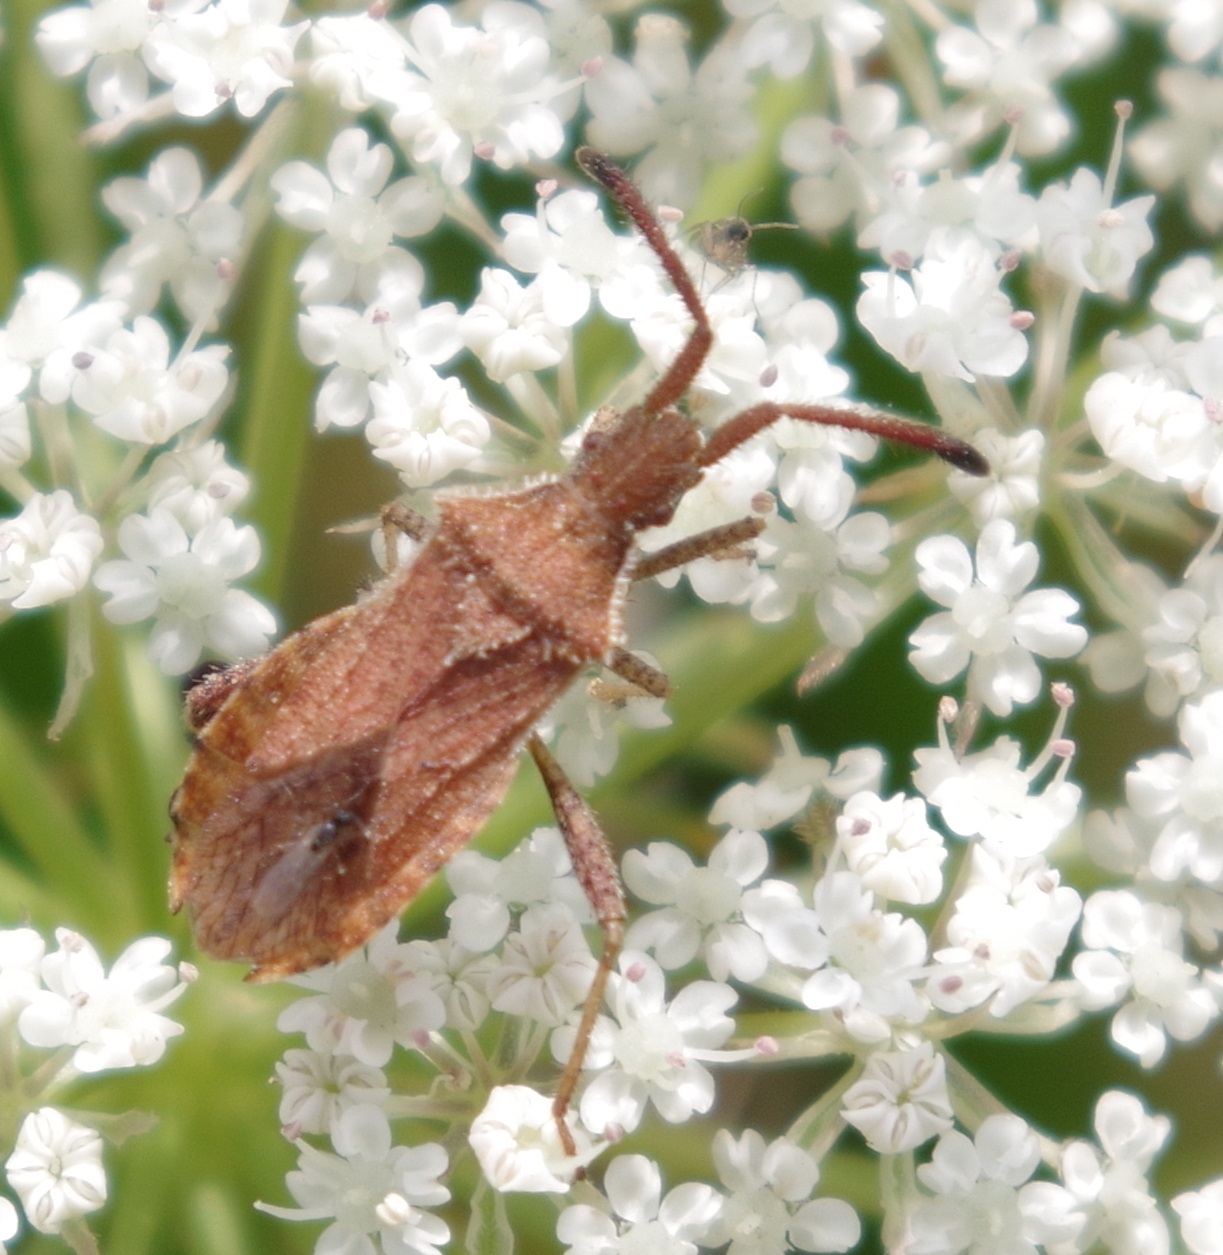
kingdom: Animalia
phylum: Arthropoda
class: Insecta
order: Hemiptera
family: Coreidae
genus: Coriomeris
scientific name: Coriomeris denticulatus
